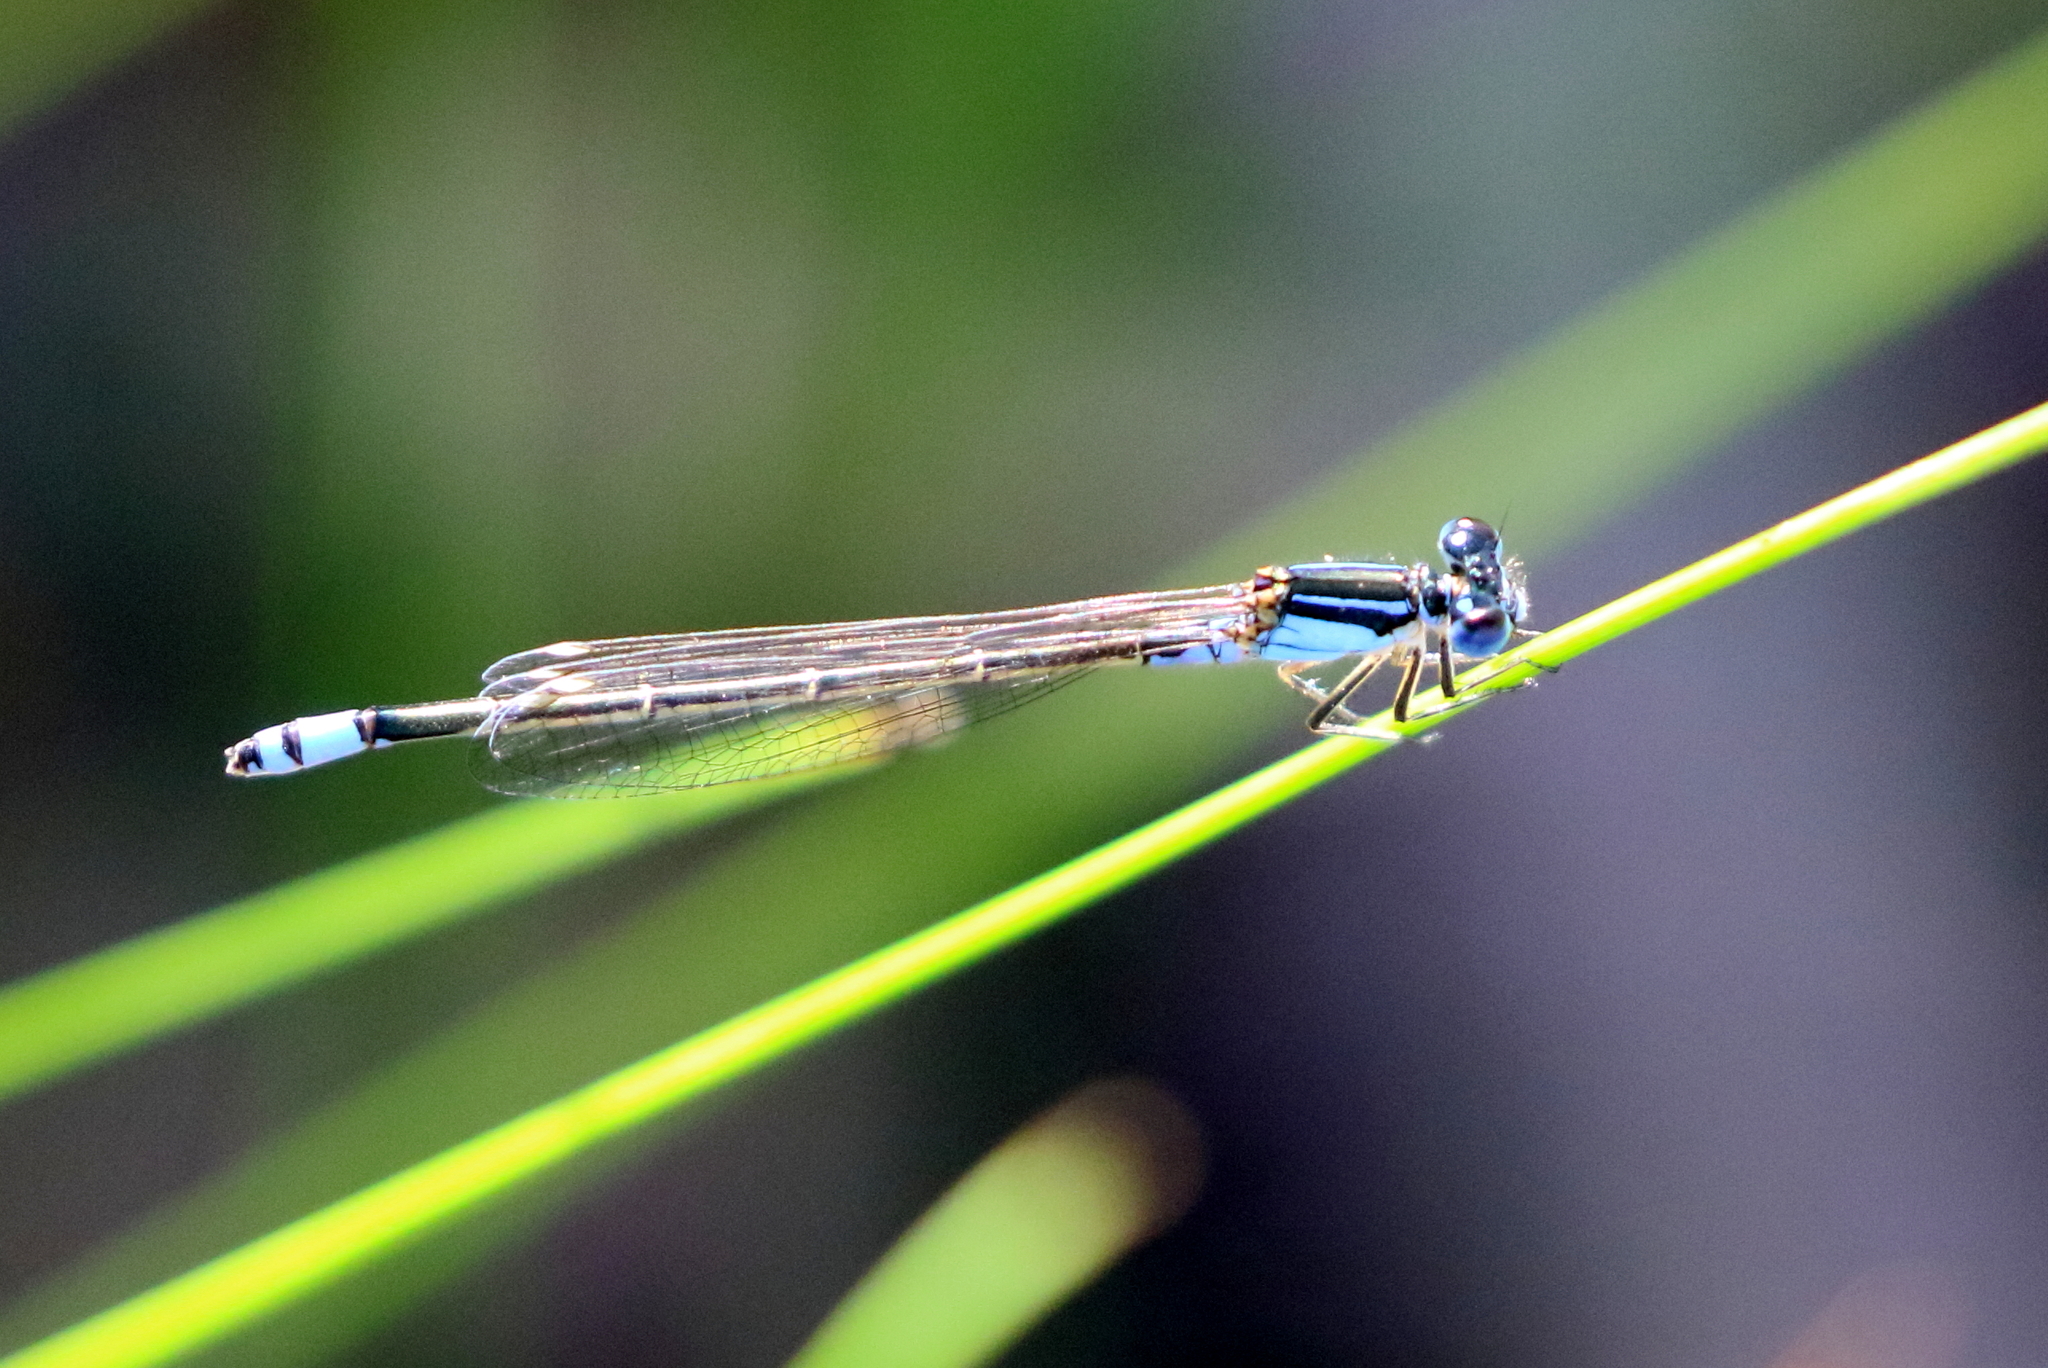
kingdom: Animalia
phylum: Arthropoda
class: Insecta
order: Odonata
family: Coenagrionidae
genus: Ischnura
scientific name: Ischnura heterosticta
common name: Common bluetail
